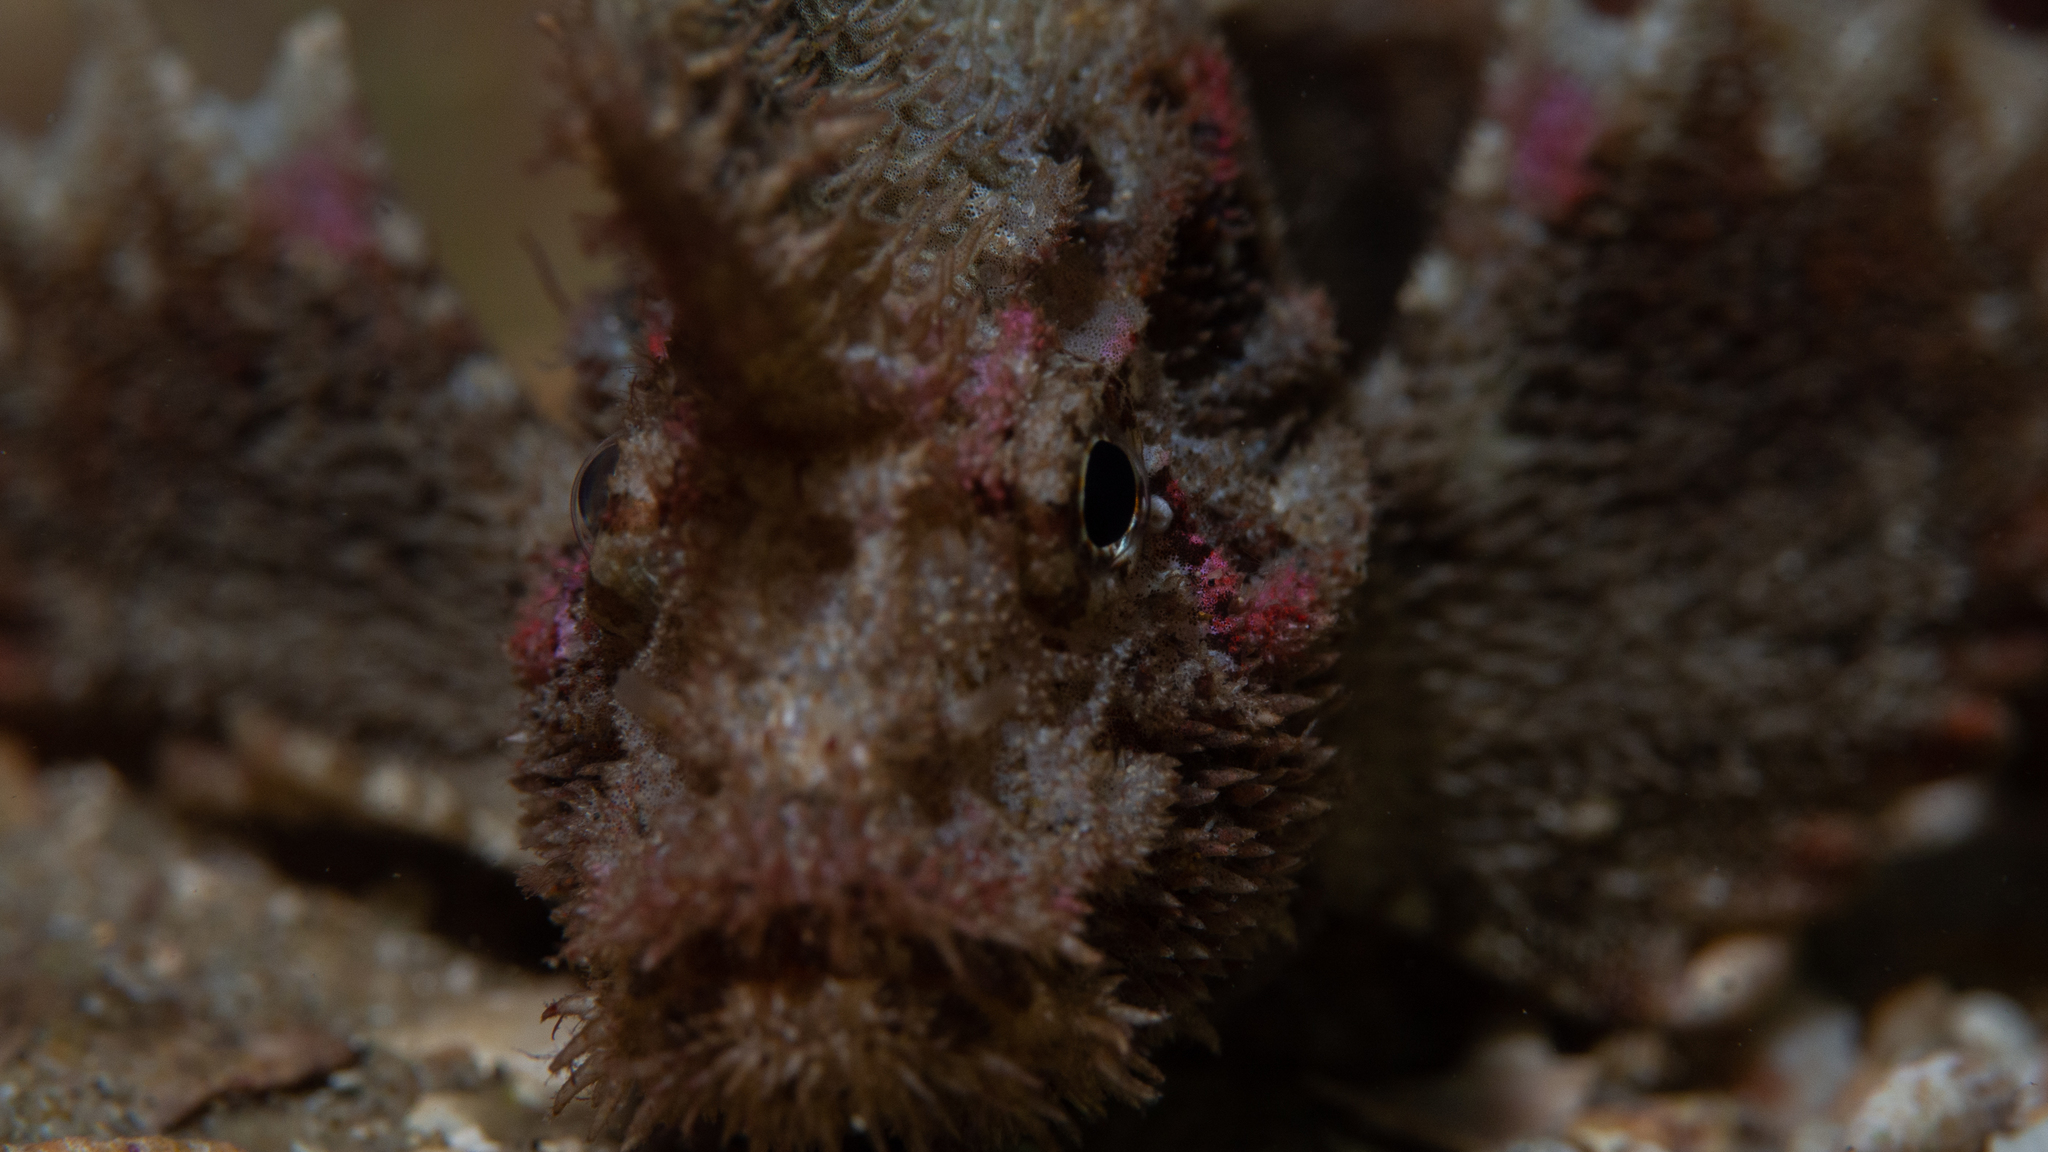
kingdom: Animalia
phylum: Chordata
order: Scorpaeniformes
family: Aploactinidae
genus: Aploactisoma
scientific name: Aploactisoma milesii
